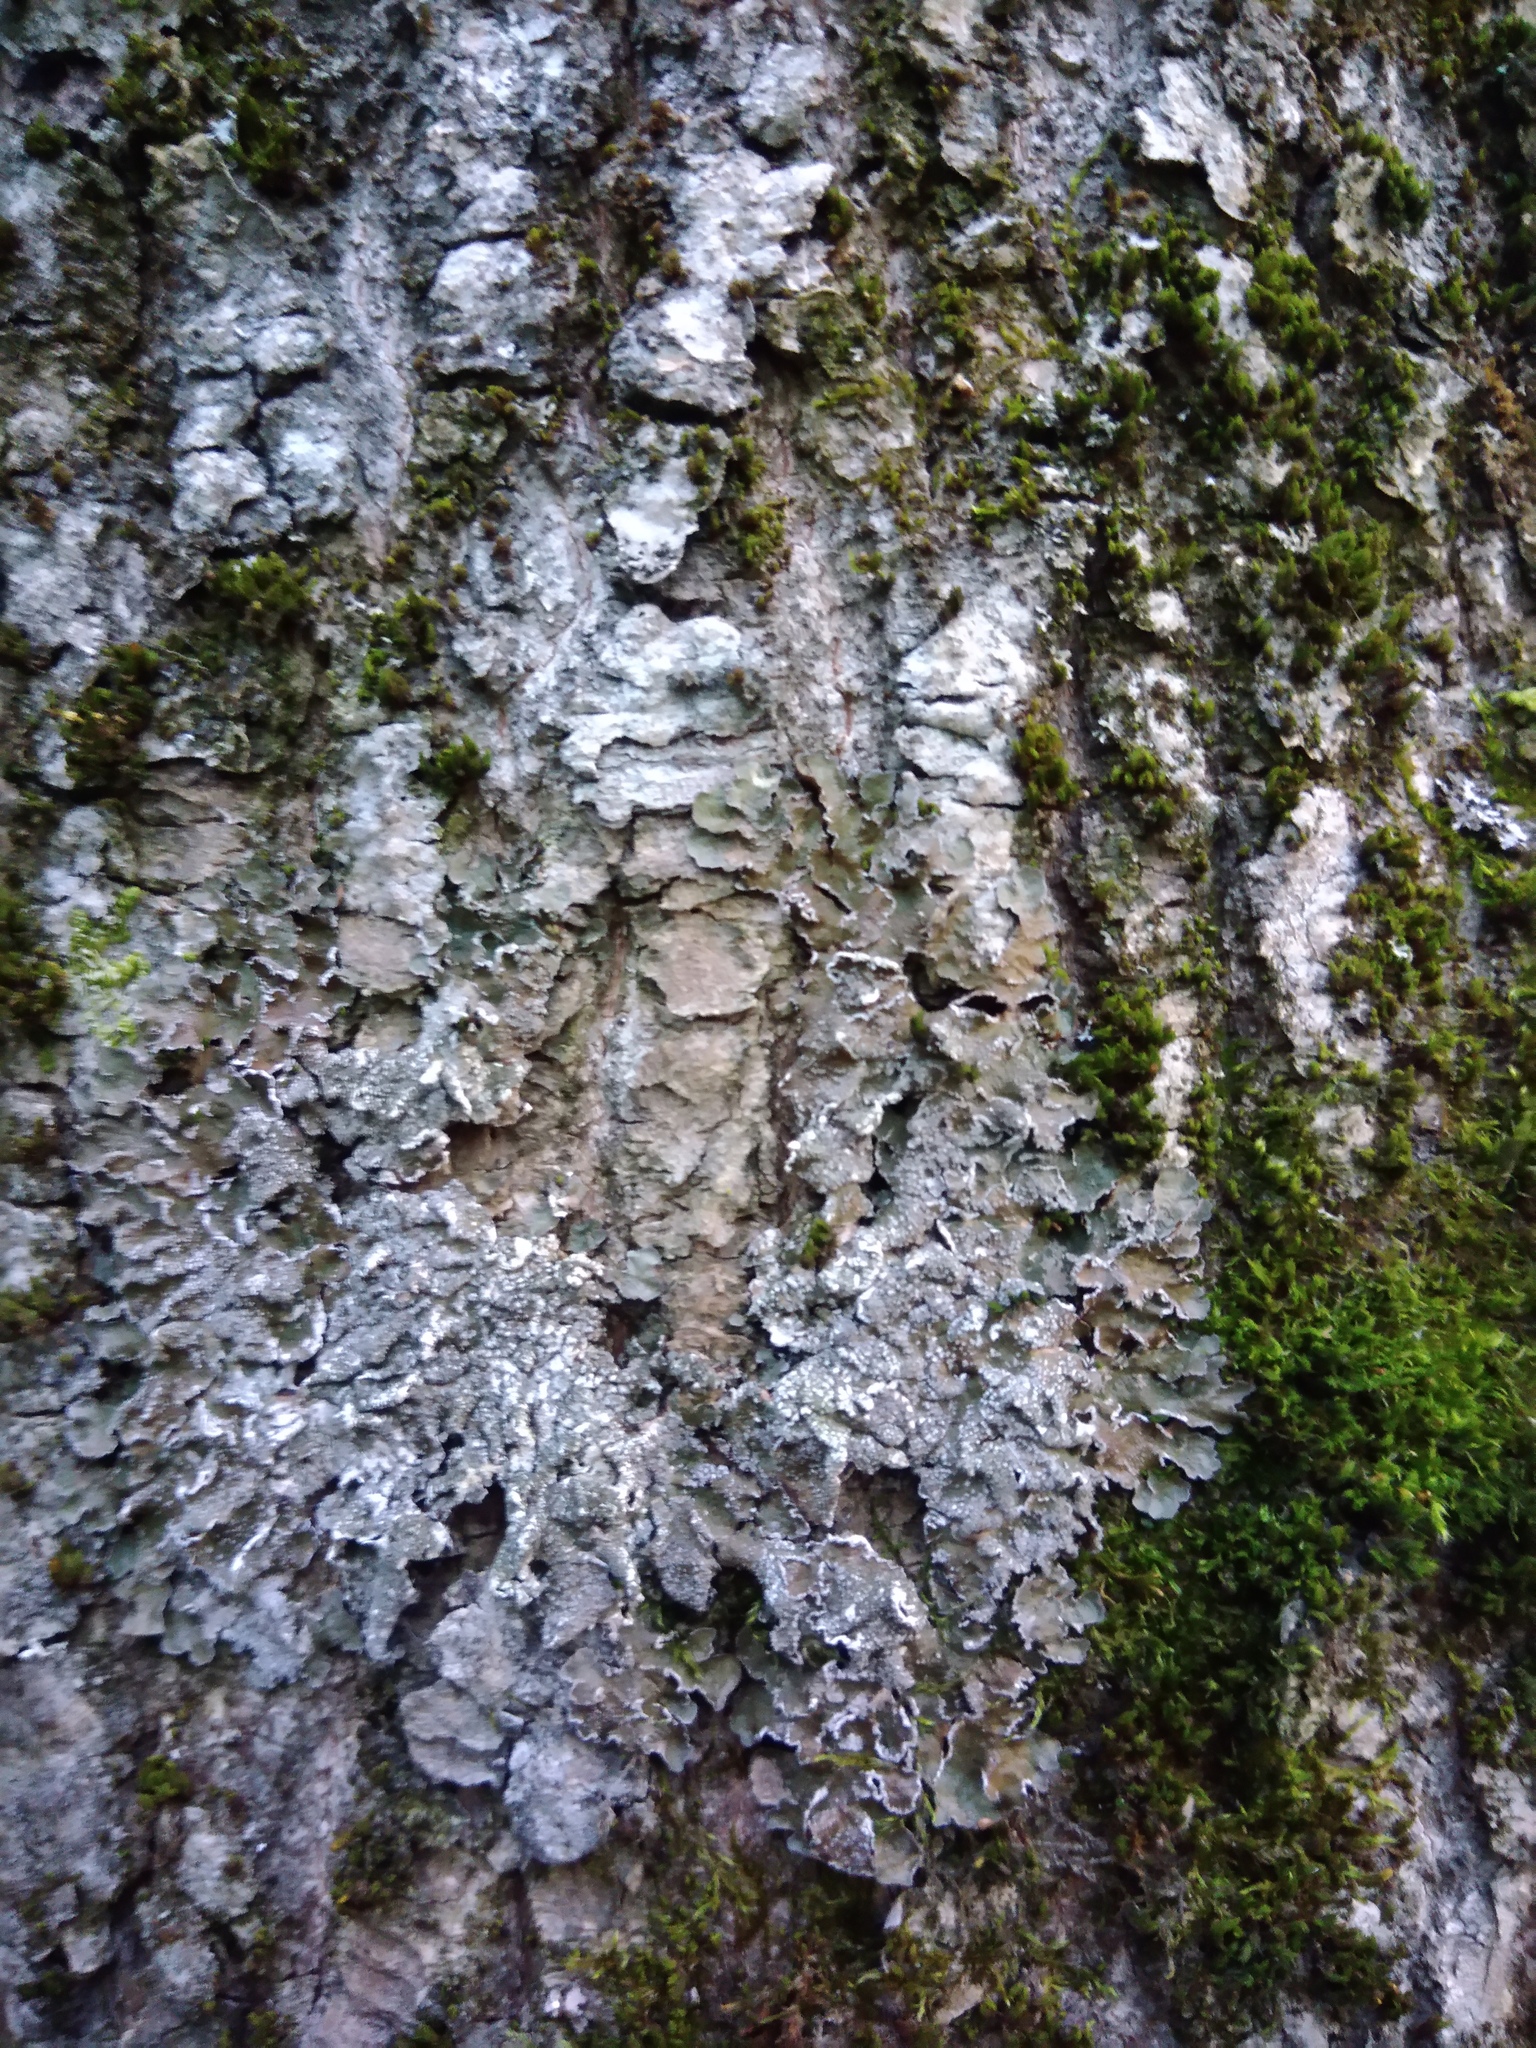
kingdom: Fungi
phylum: Ascomycota
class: Lecanoromycetes
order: Lecanorales
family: Parmeliaceae
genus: Melanelixia
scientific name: Melanelixia subargentifera
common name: Whiskered camouflage lichen
